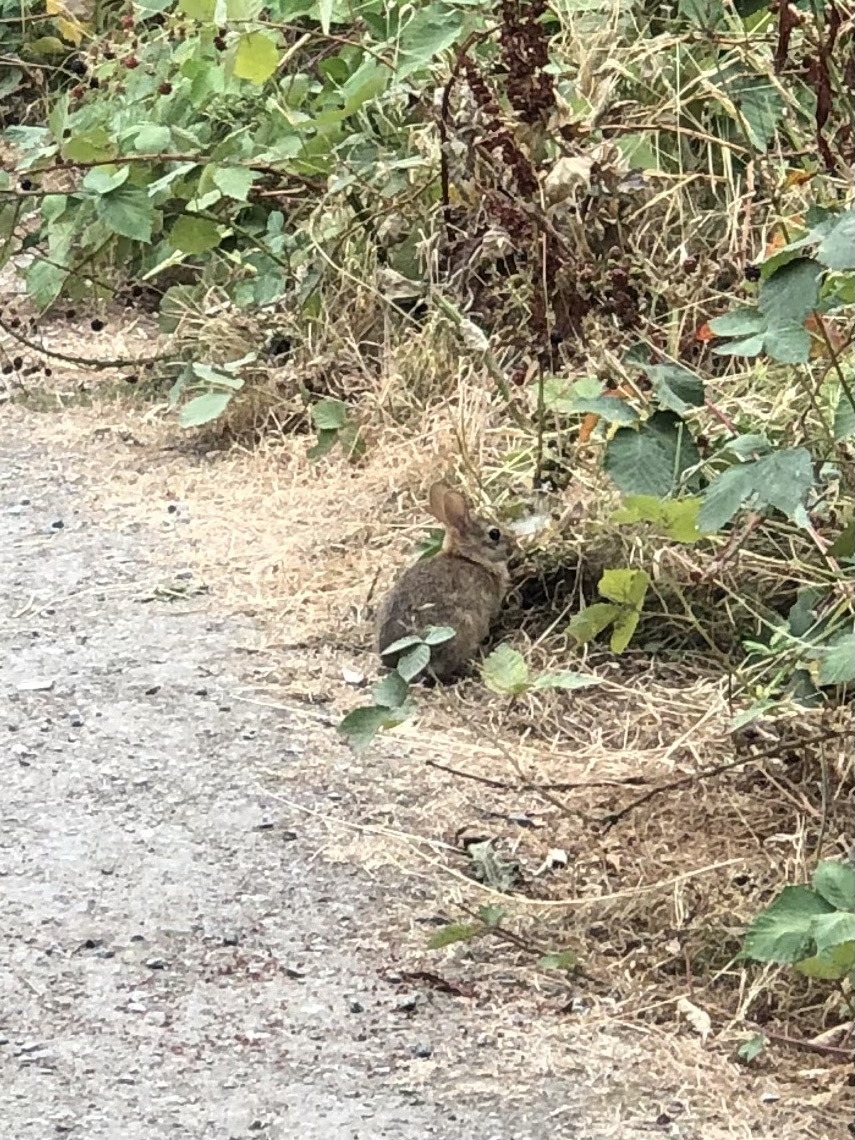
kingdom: Animalia
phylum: Chordata
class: Mammalia
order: Lagomorpha
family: Leporidae
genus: Sylvilagus
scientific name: Sylvilagus floridanus
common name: Eastern cottontail
